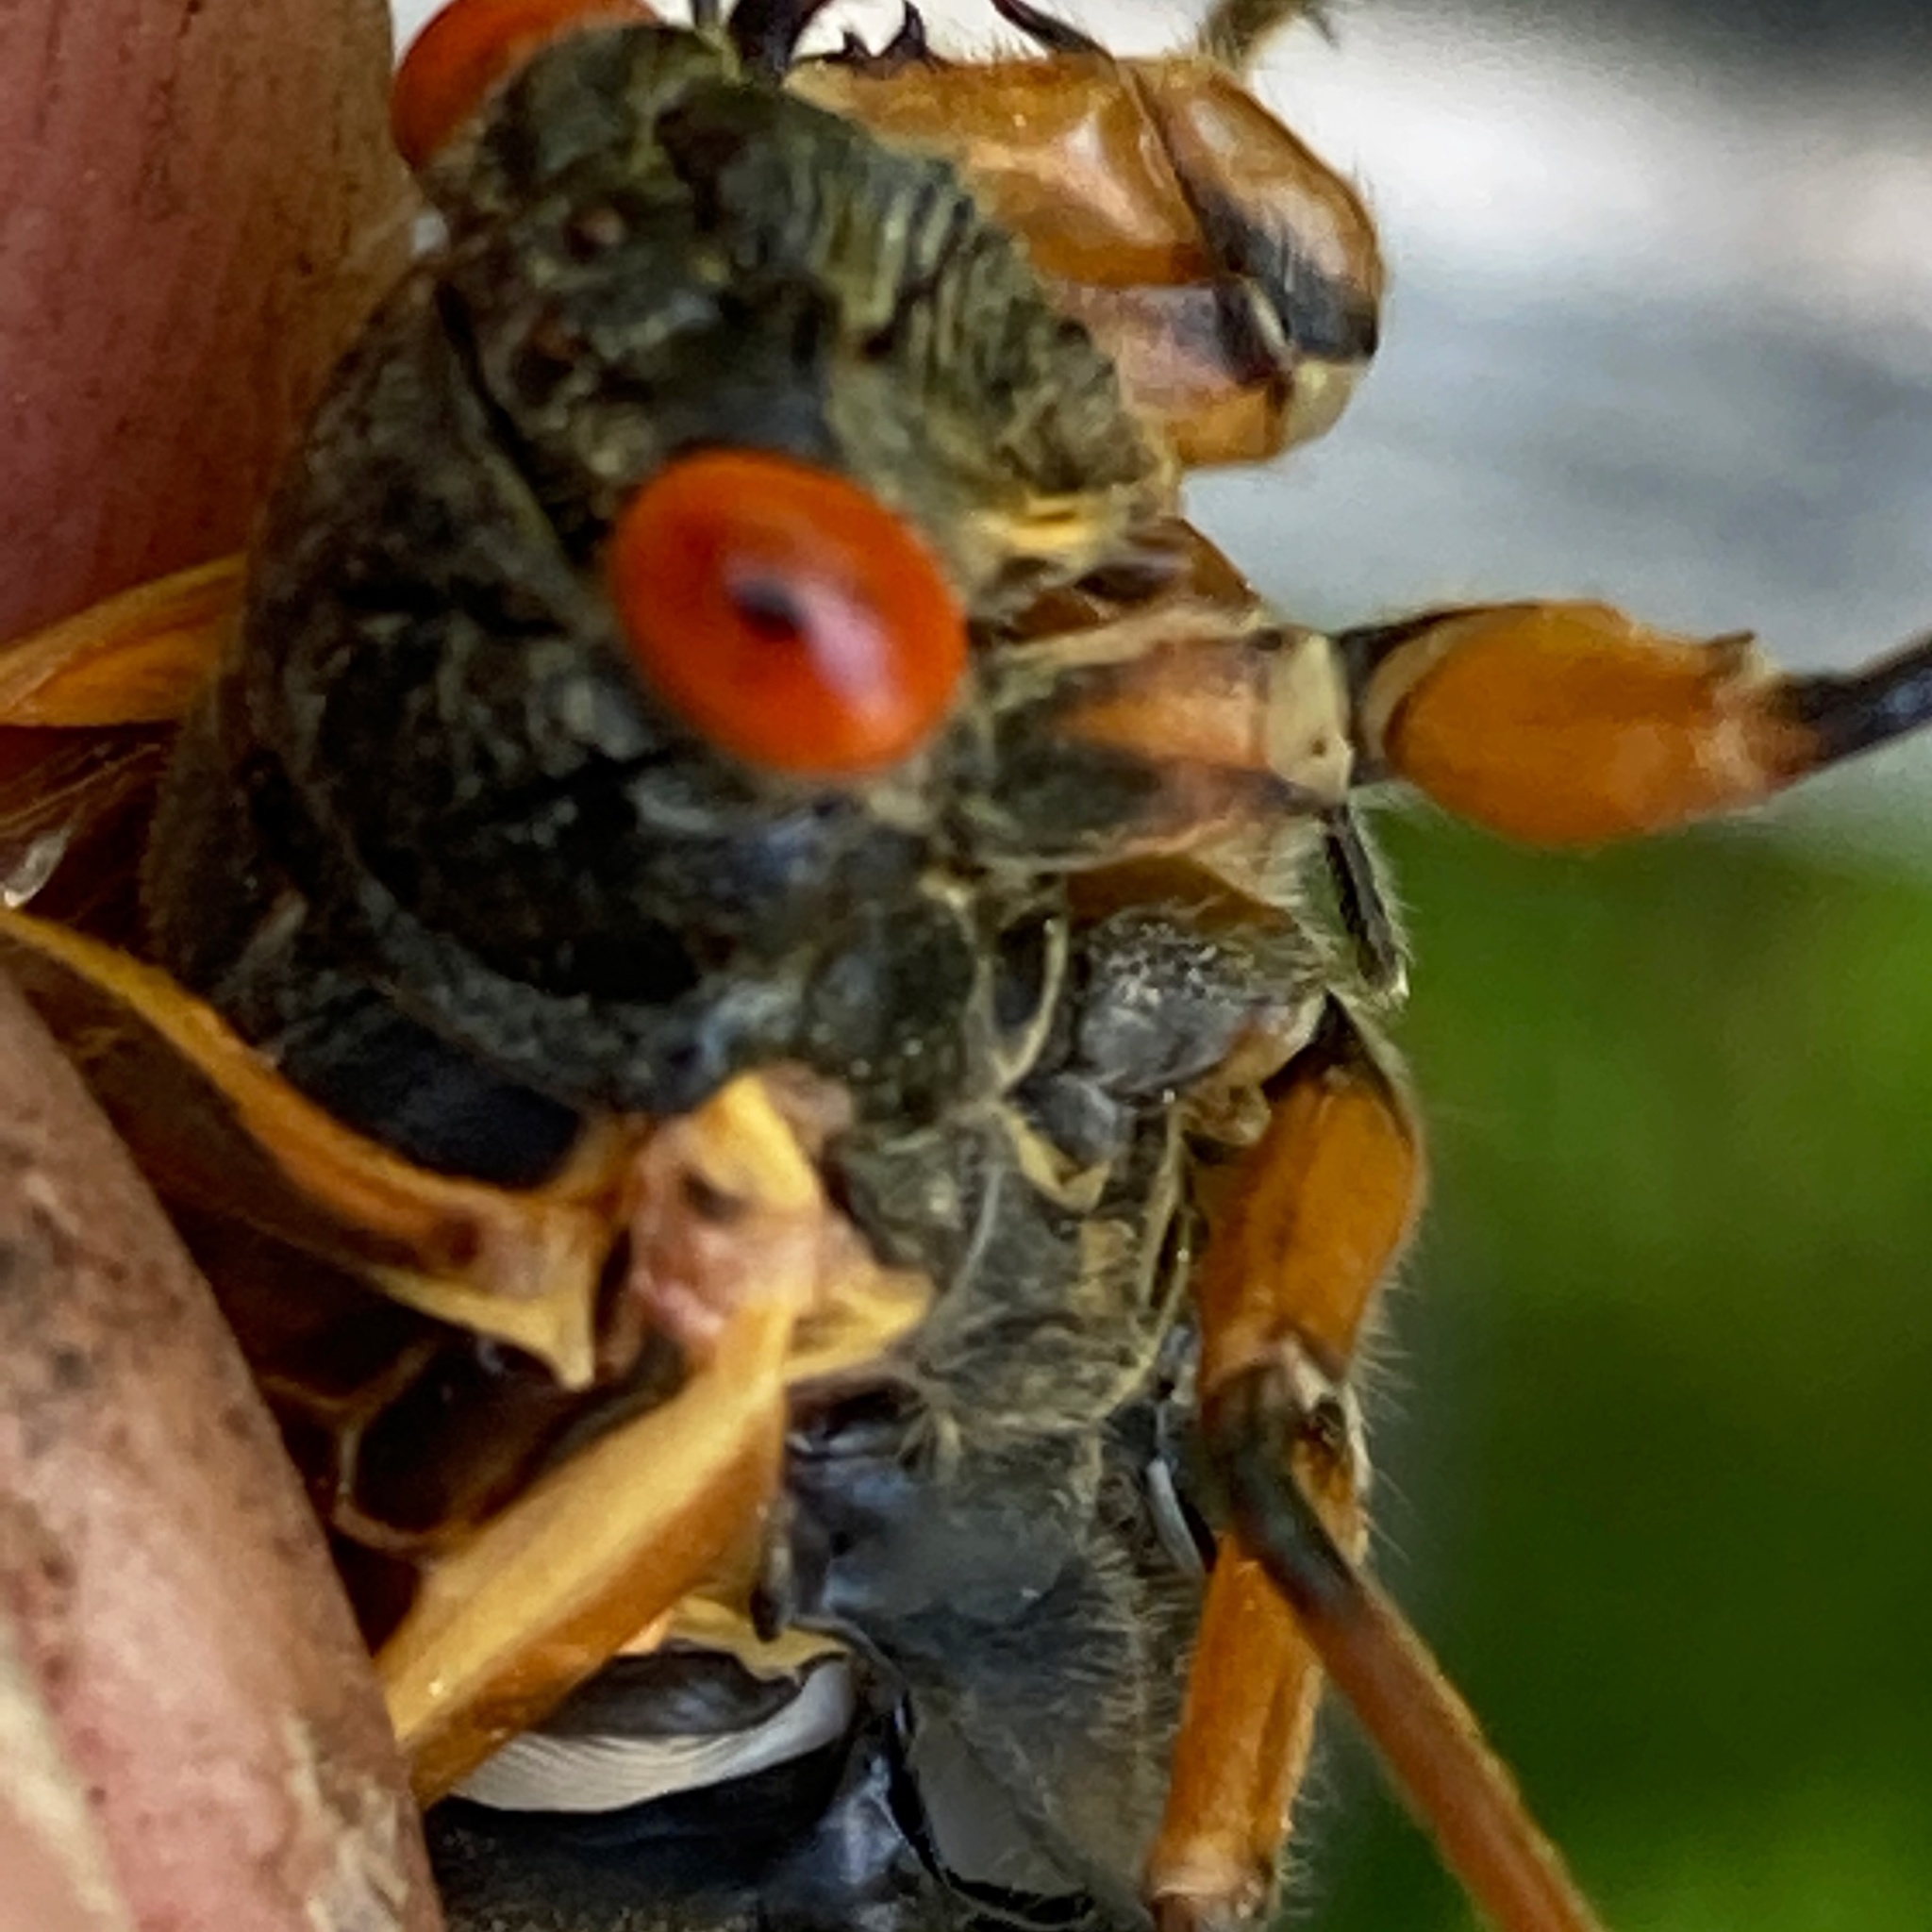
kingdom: Animalia
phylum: Arthropoda
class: Insecta
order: Hemiptera
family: Cicadidae
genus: Magicicada
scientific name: Magicicada cassini
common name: Cassin's 17-year cicada
